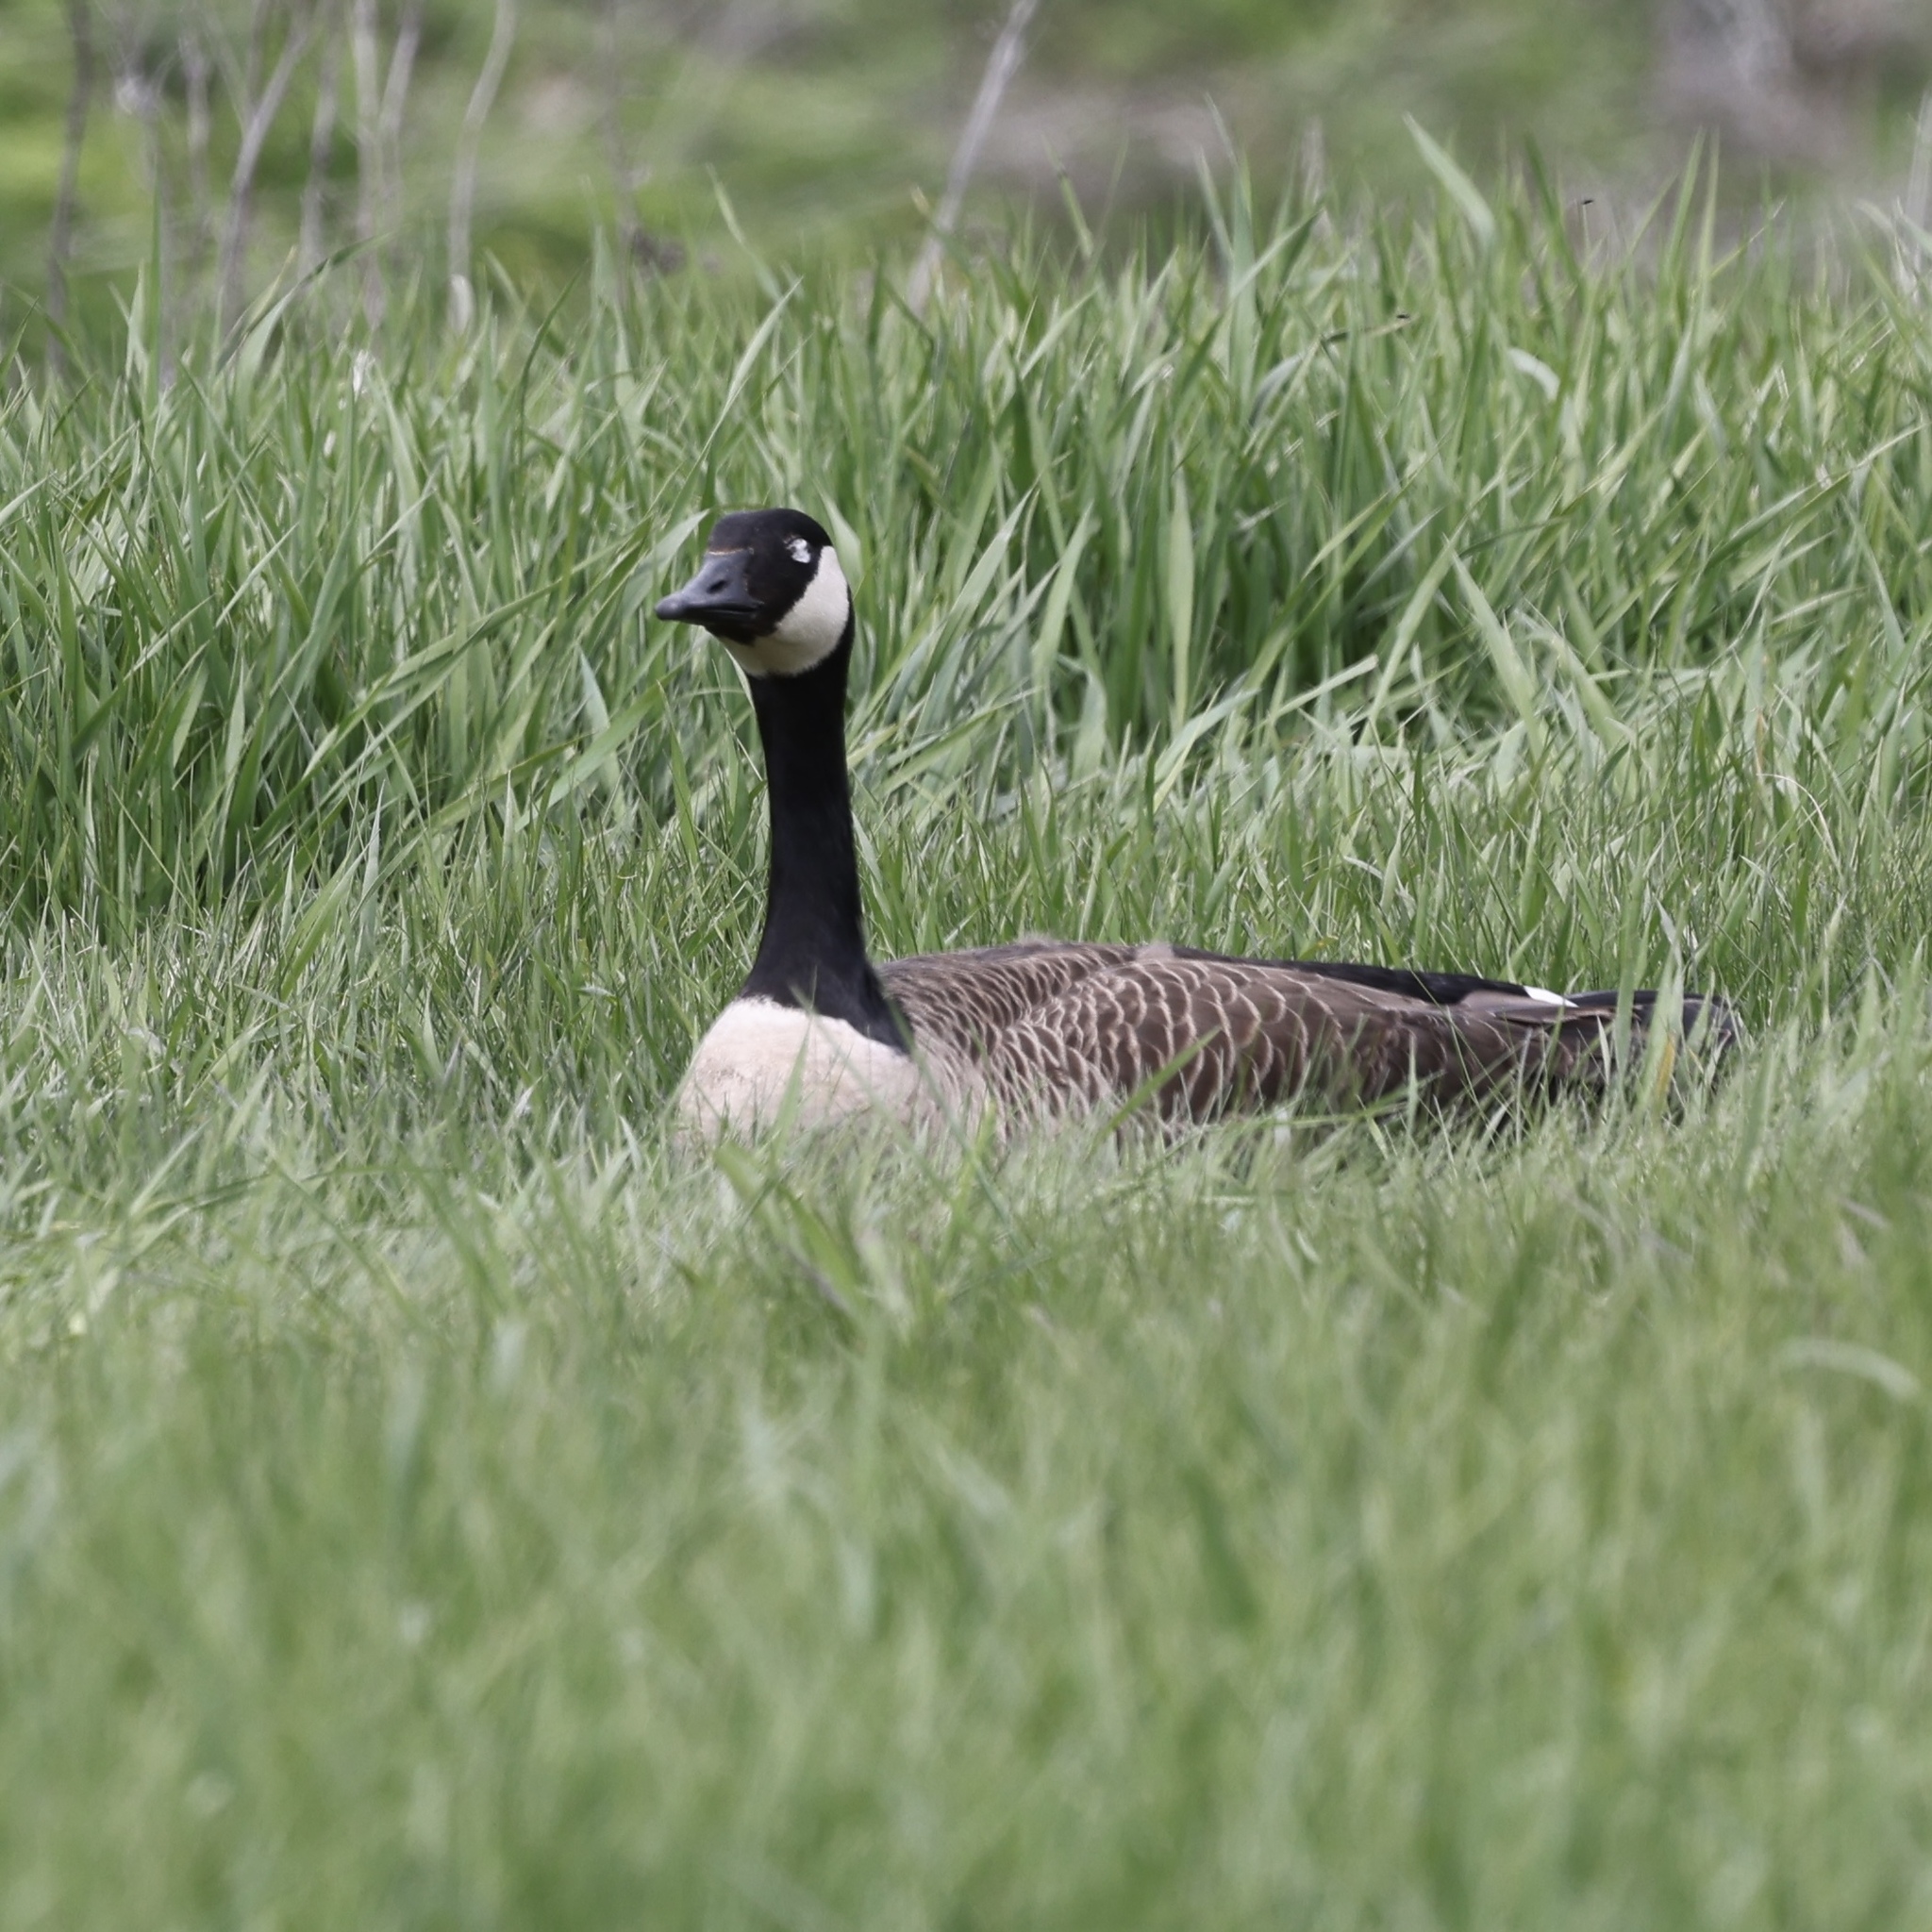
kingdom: Animalia
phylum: Chordata
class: Aves
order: Anseriformes
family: Anatidae
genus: Branta
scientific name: Branta canadensis
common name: Canada goose
